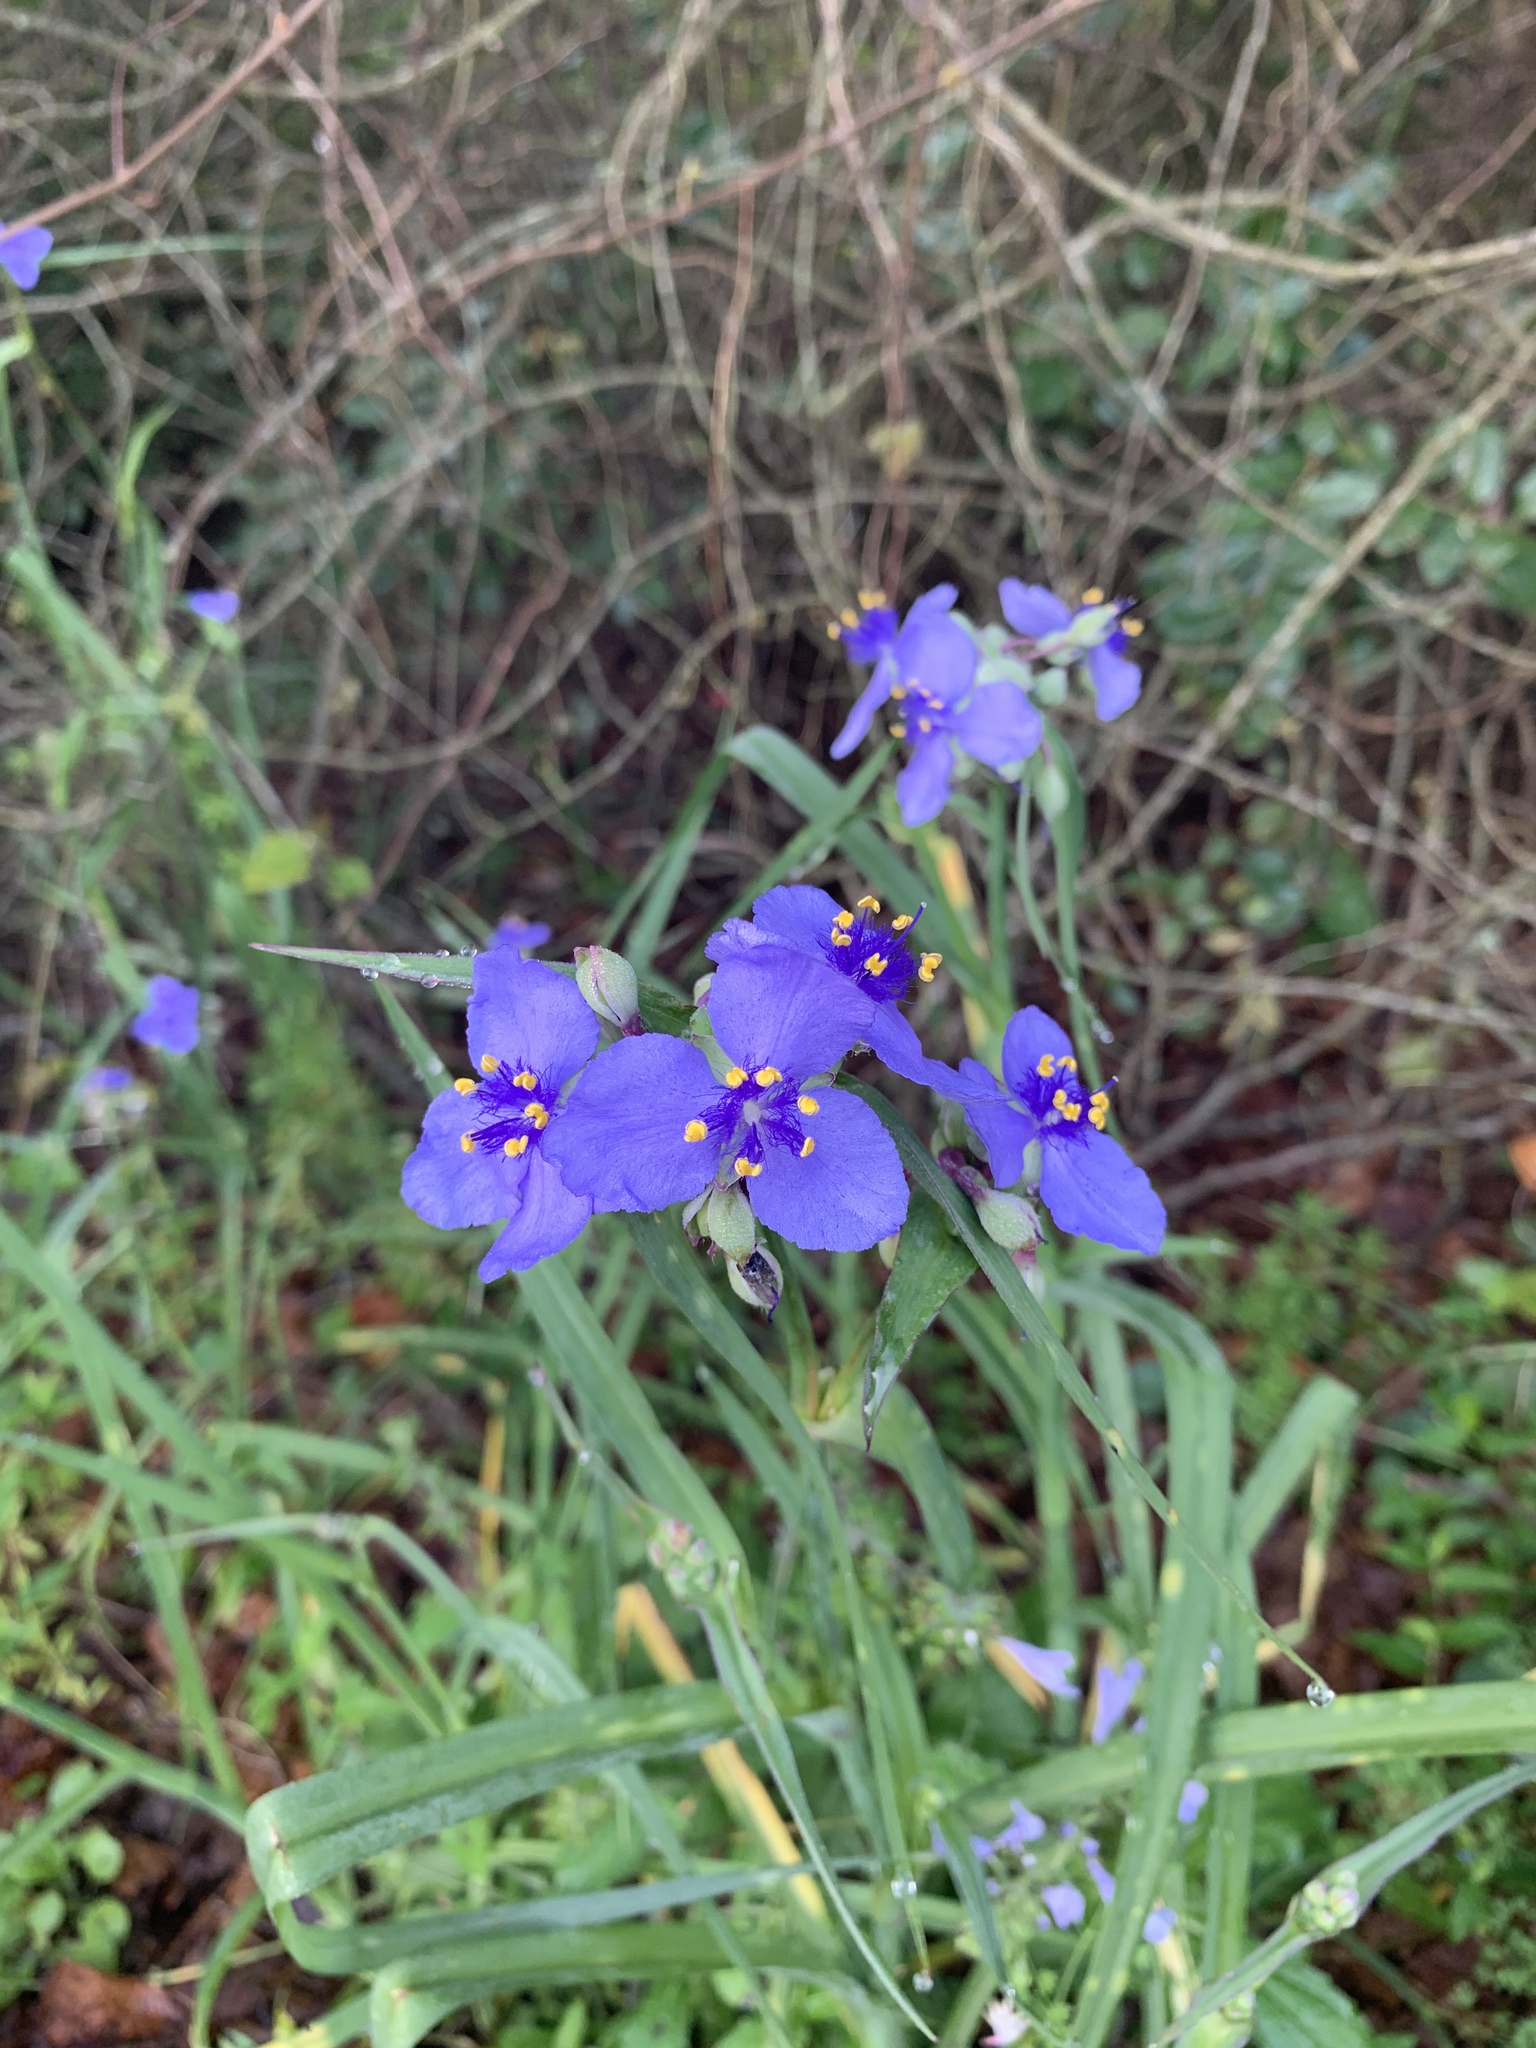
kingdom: Plantae
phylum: Tracheophyta
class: Liliopsida
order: Commelinales
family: Commelinaceae
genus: Tradescantia
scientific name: Tradescantia ohiensis
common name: Ohio spiderwort
